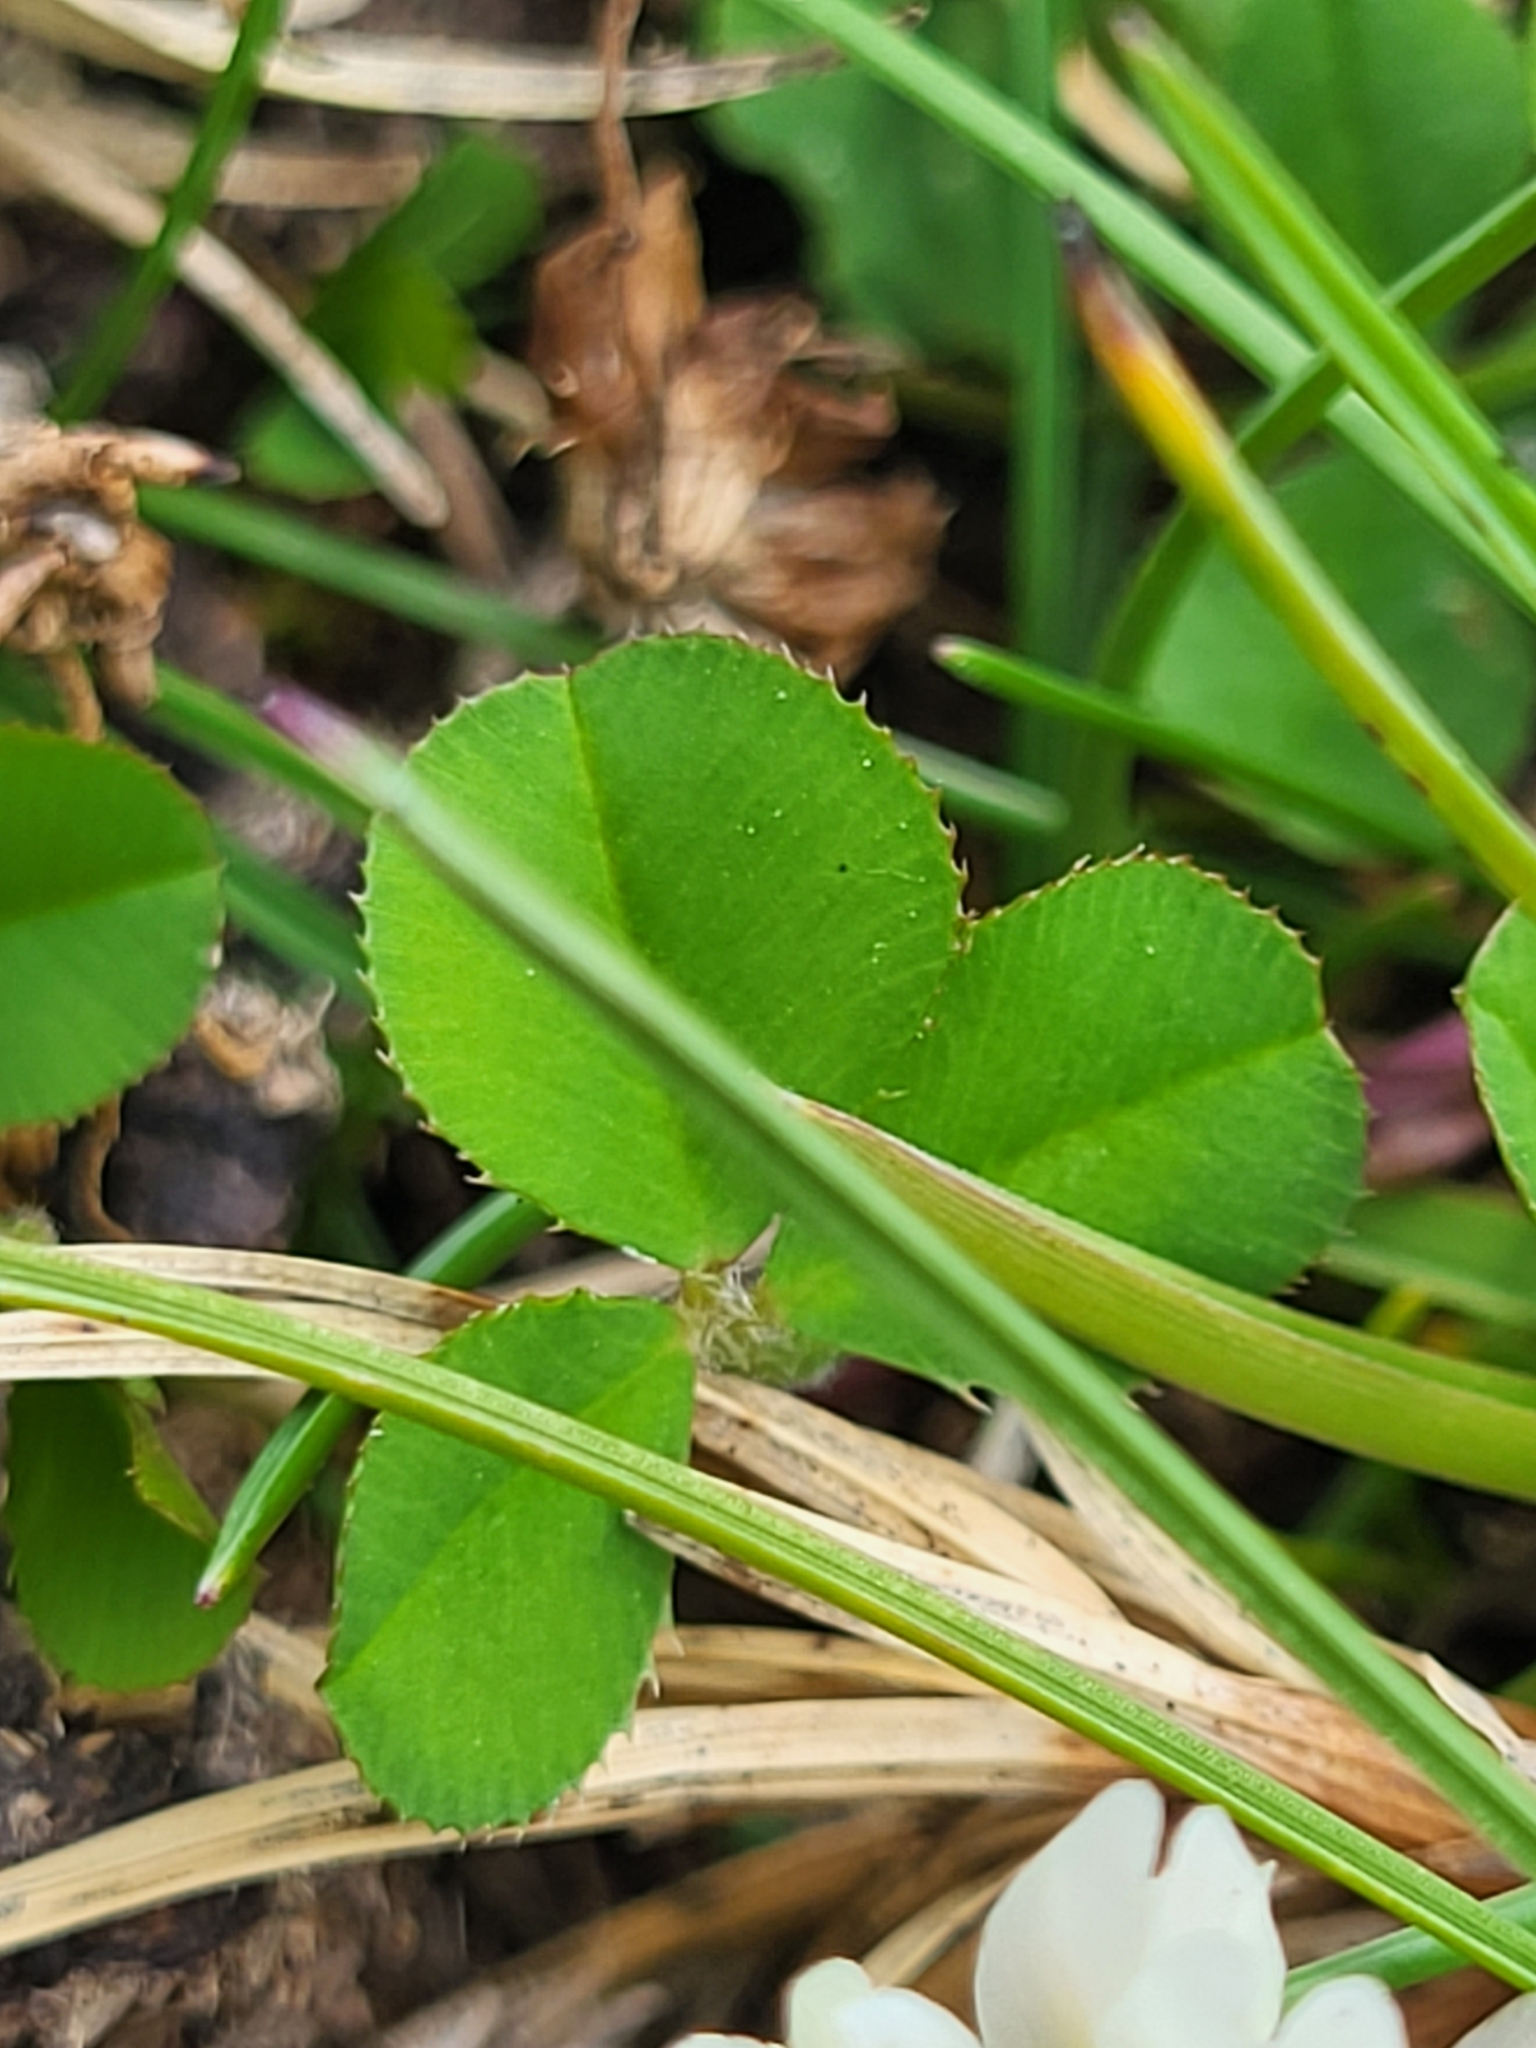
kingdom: Plantae
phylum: Tracheophyta
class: Magnoliopsida
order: Fabales
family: Fabaceae
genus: Trifolium
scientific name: Trifolium repens
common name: White clover
